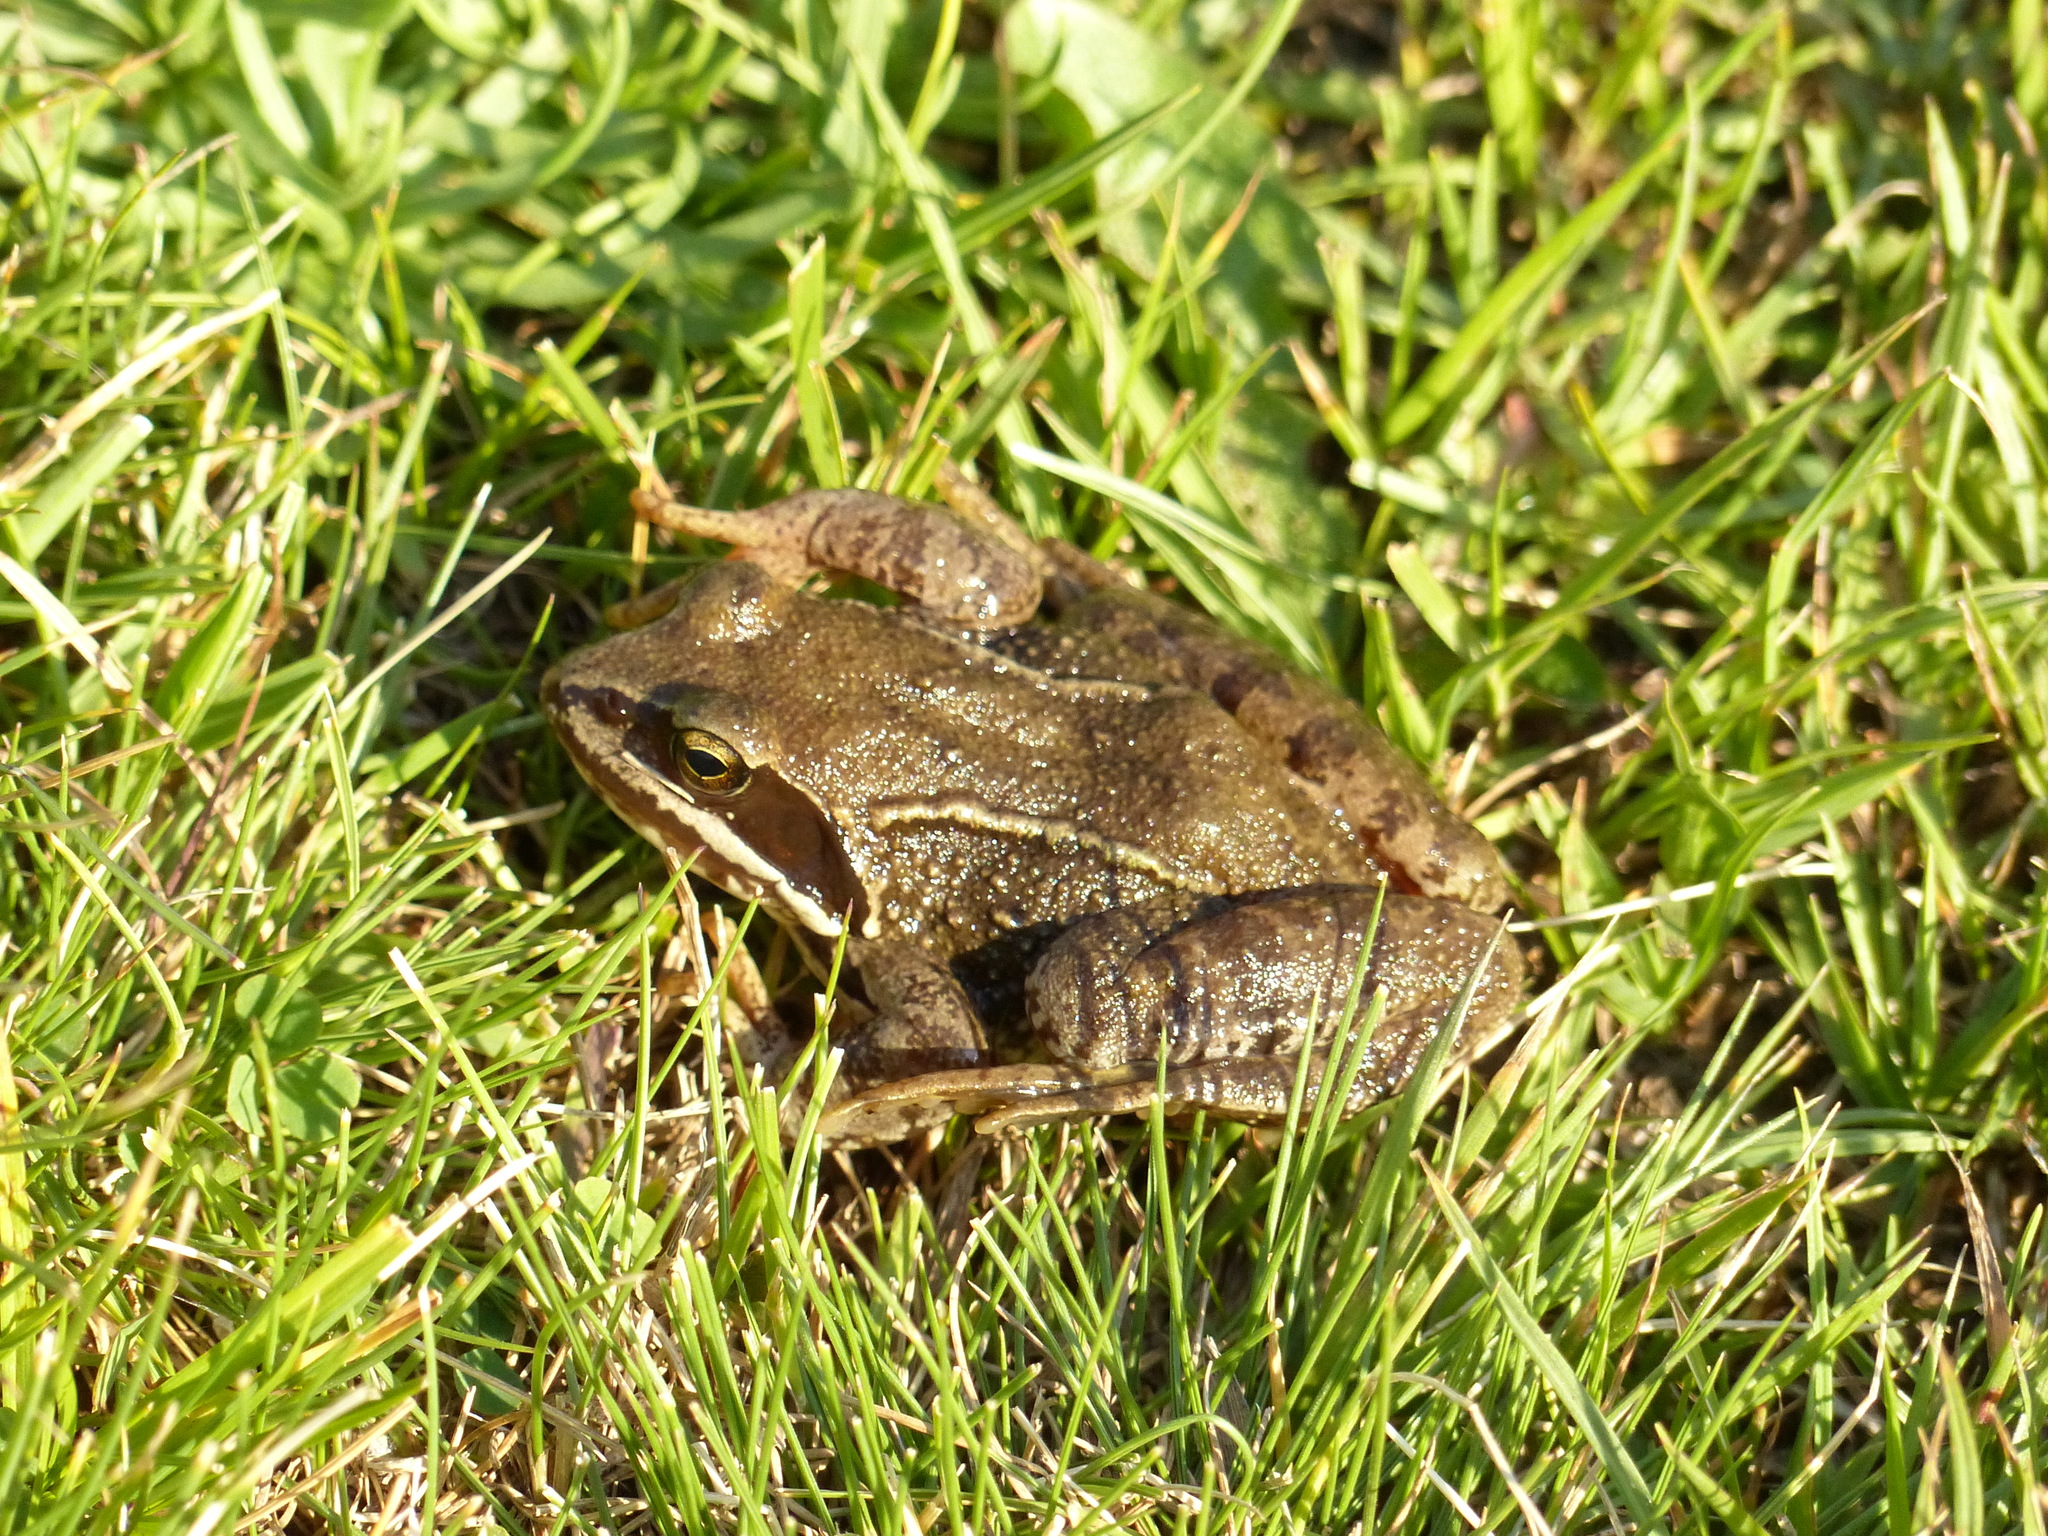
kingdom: Animalia
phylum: Arthropoda
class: Insecta
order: Odonata
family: Coenagrionidae
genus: Ischnura
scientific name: Ischnura elegans
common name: Blue-tailed damselfly
